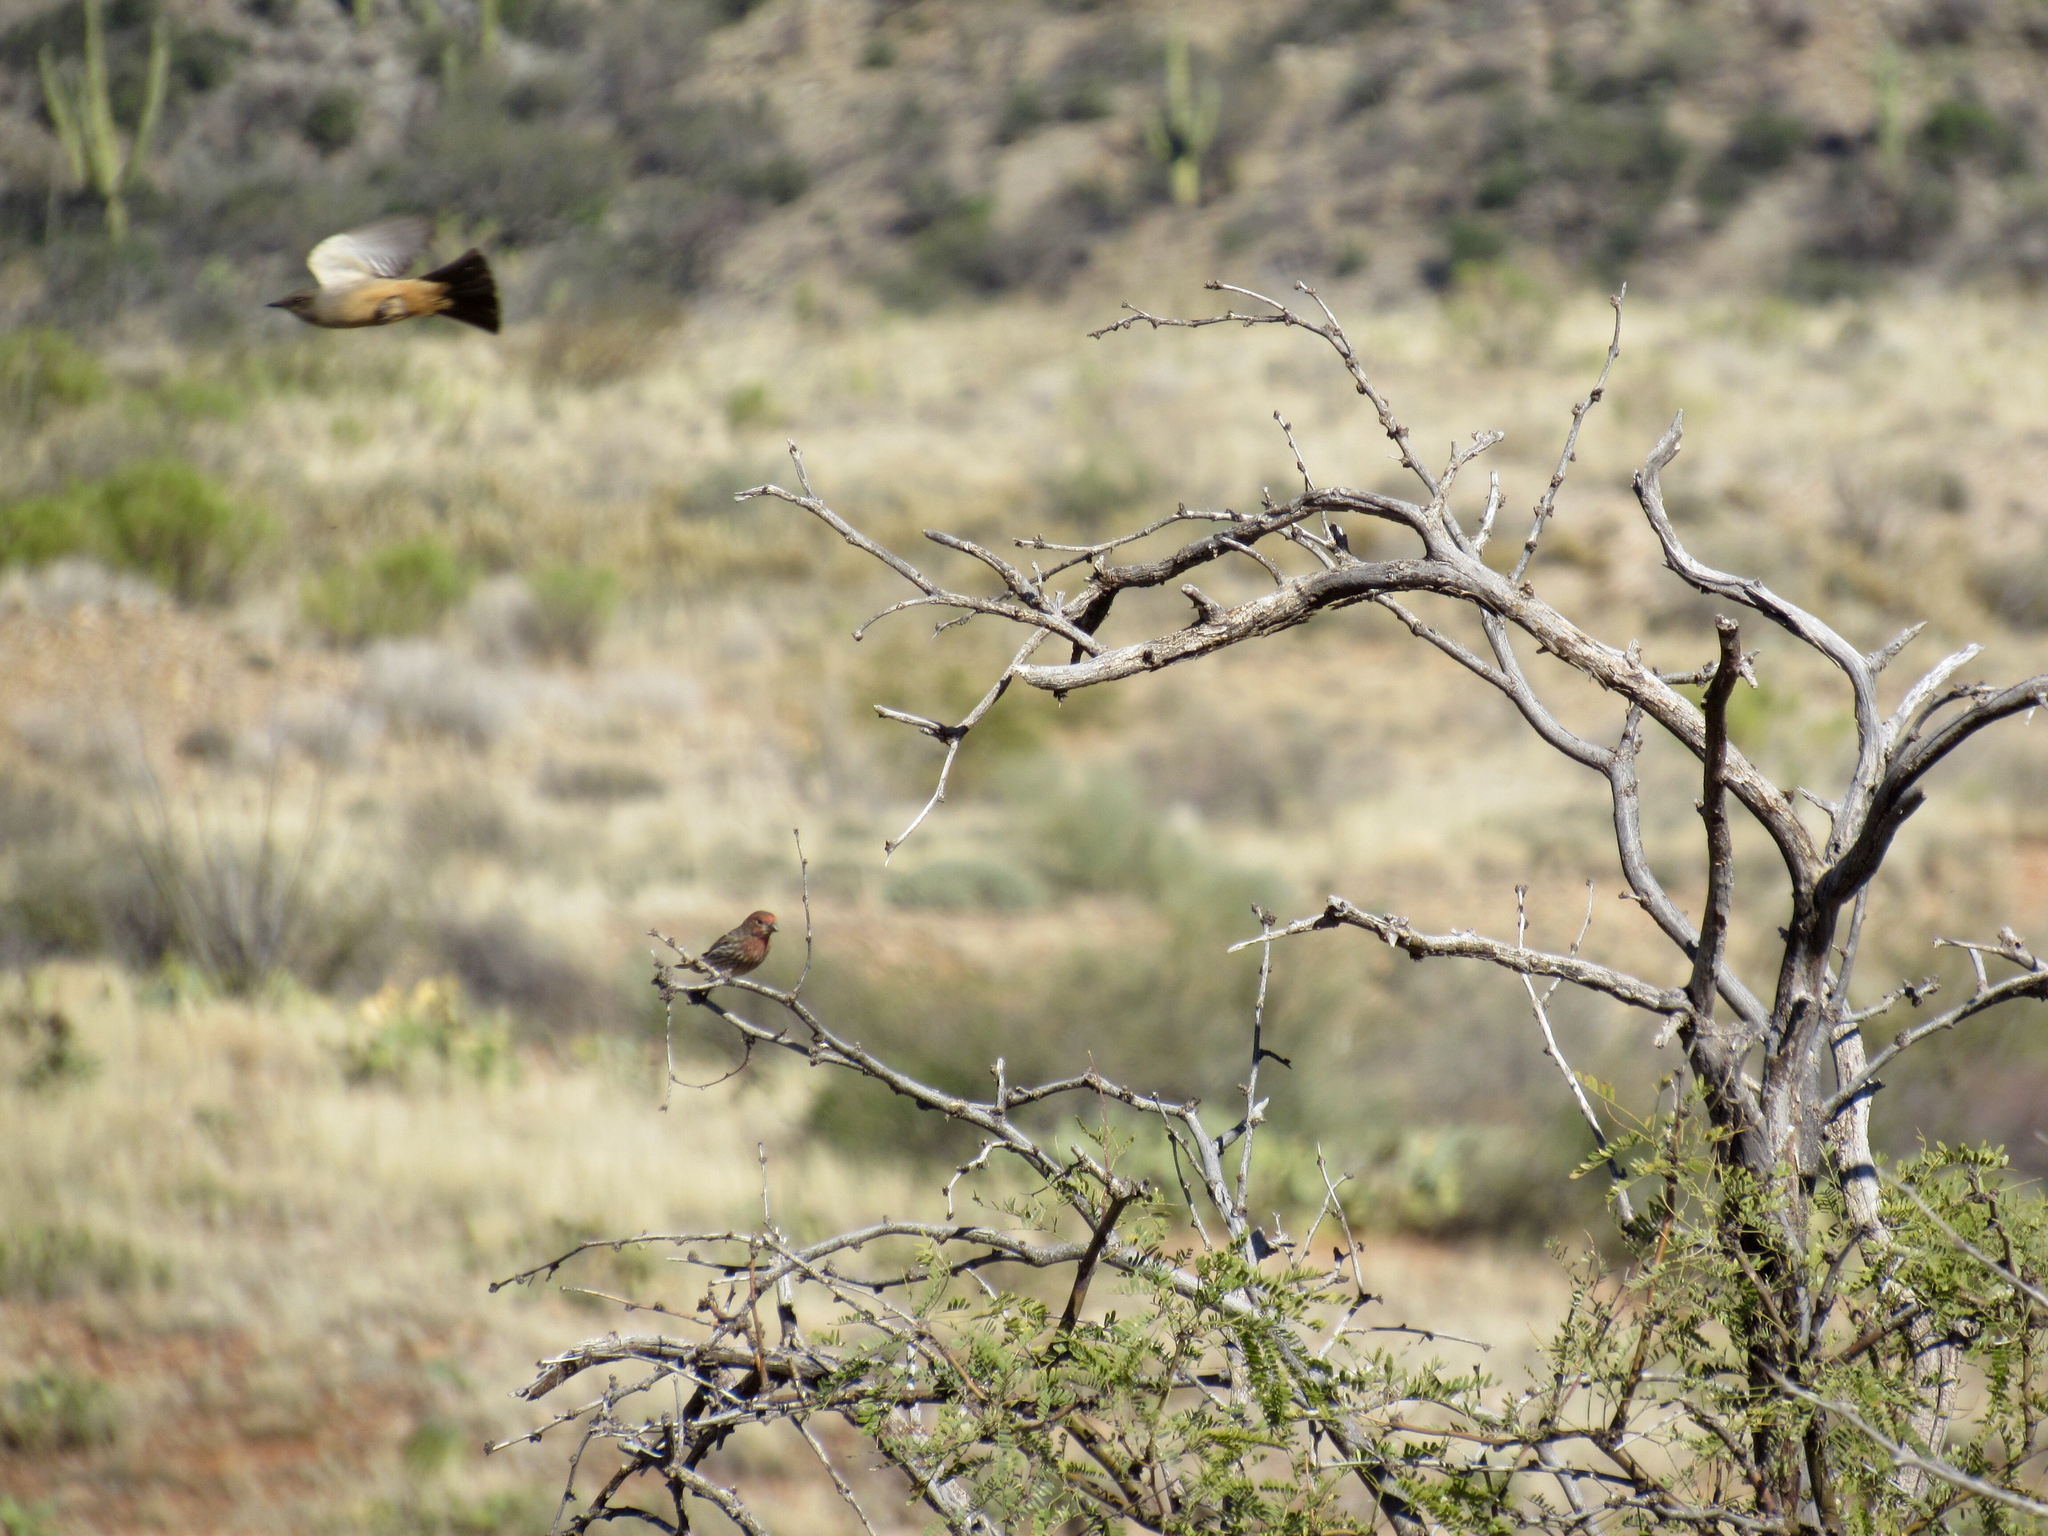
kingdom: Animalia
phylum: Chordata
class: Aves
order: Passeriformes
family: Fringillidae
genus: Haemorhous
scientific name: Haemorhous mexicanus
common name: House finch
